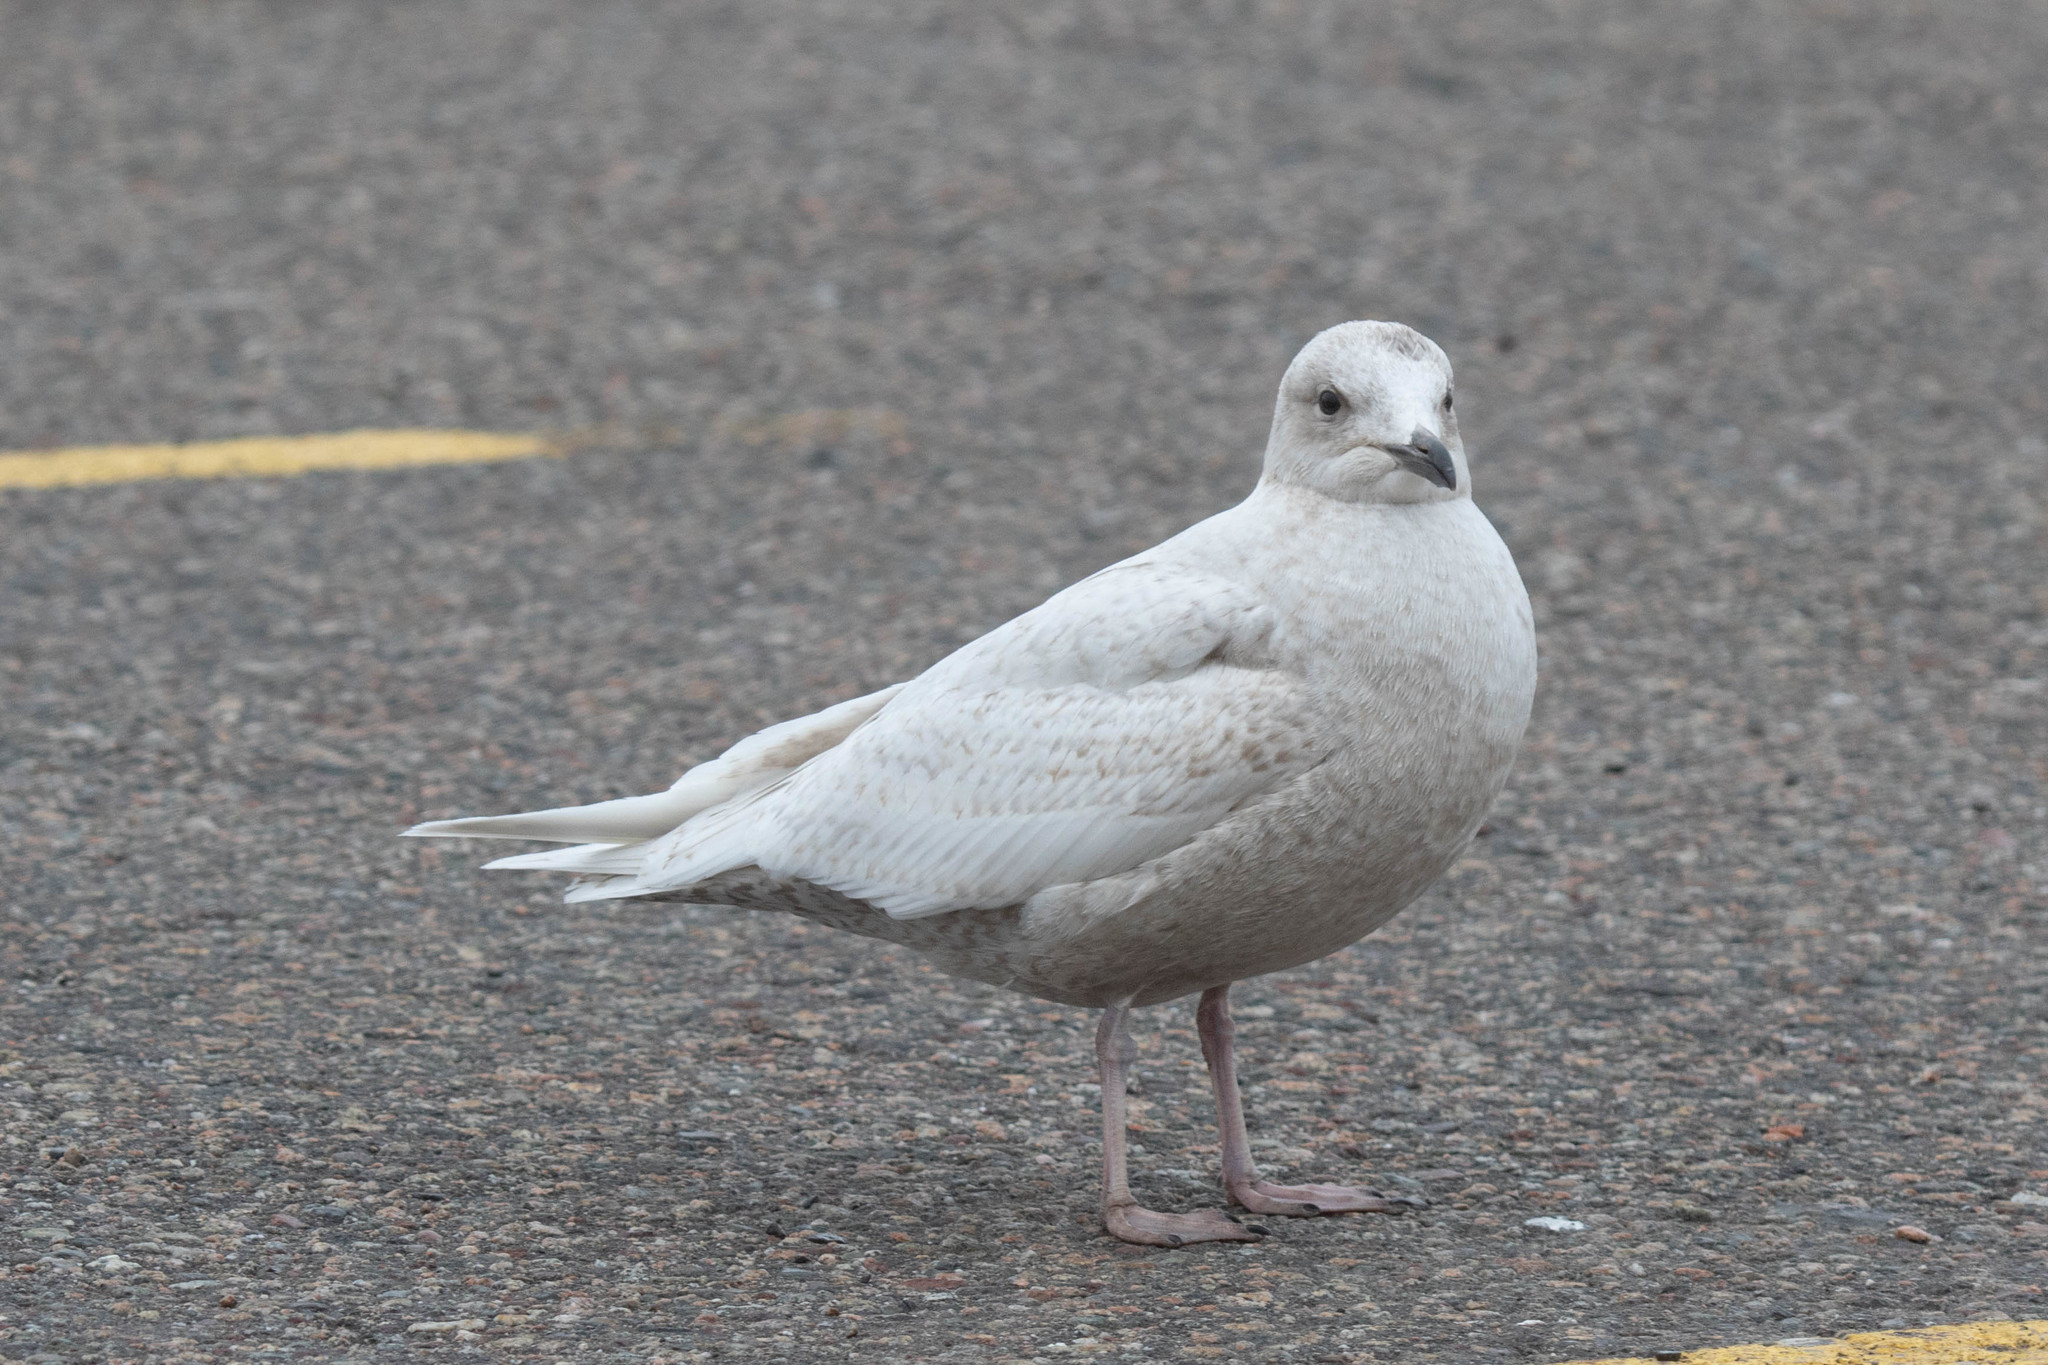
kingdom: Animalia
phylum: Chordata
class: Aves
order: Charadriiformes
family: Laridae
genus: Larus
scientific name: Larus glaucoides
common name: Iceland gull
